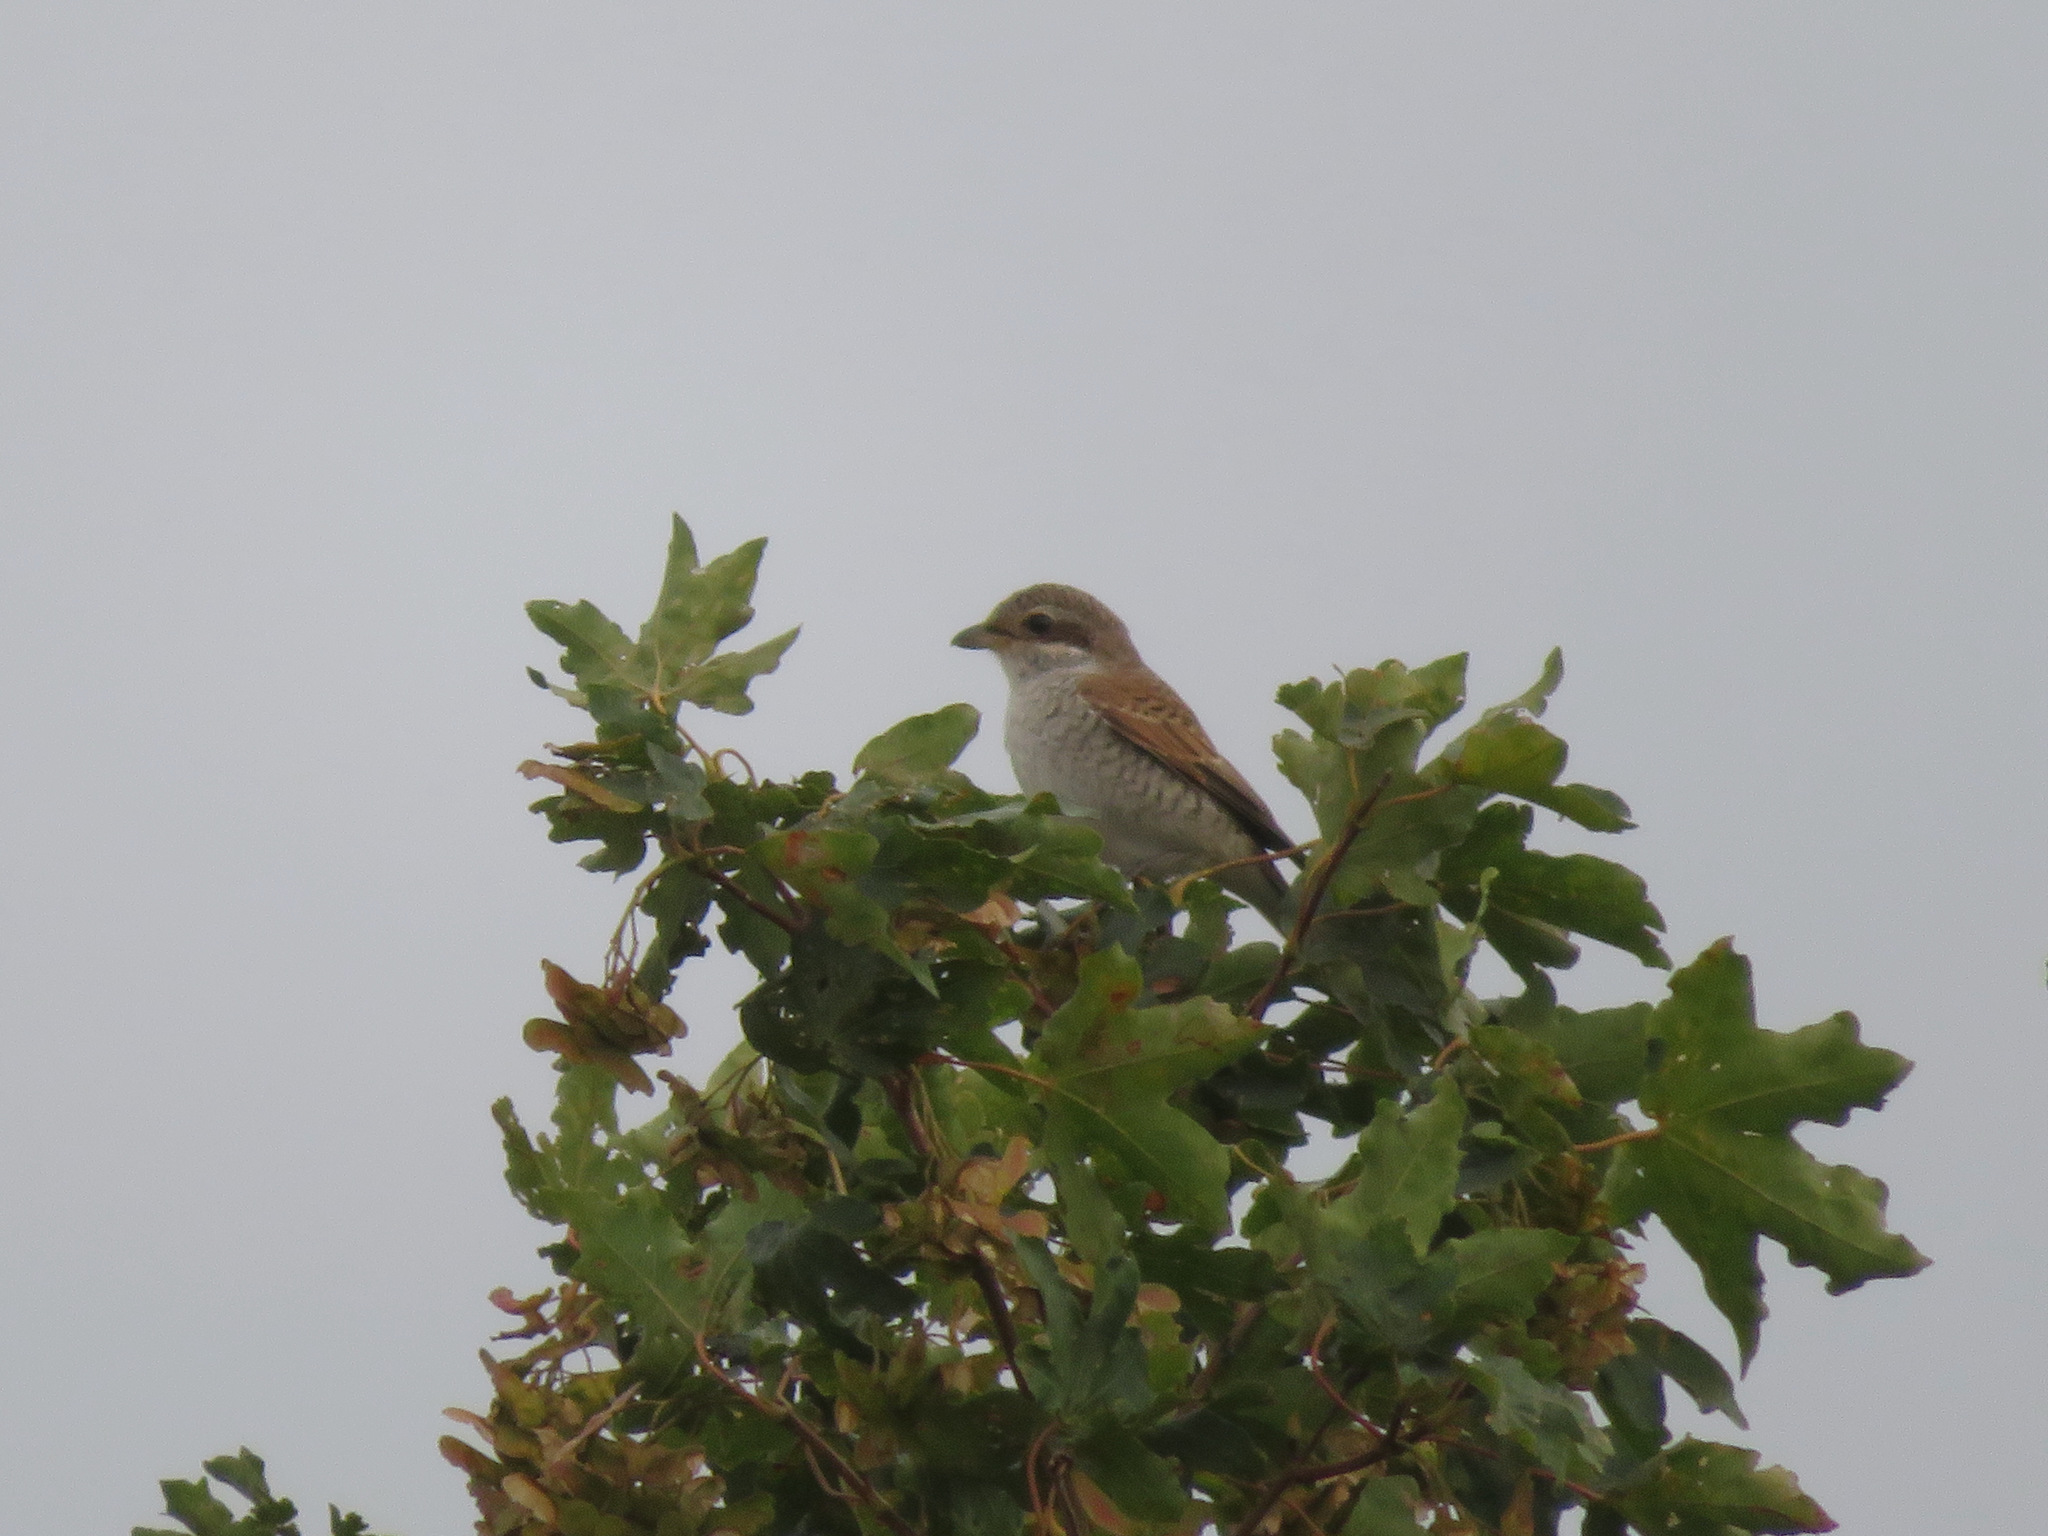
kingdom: Animalia
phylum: Chordata
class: Aves
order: Passeriformes
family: Laniidae
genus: Lanius
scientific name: Lanius collurio
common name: Red-backed shrike
